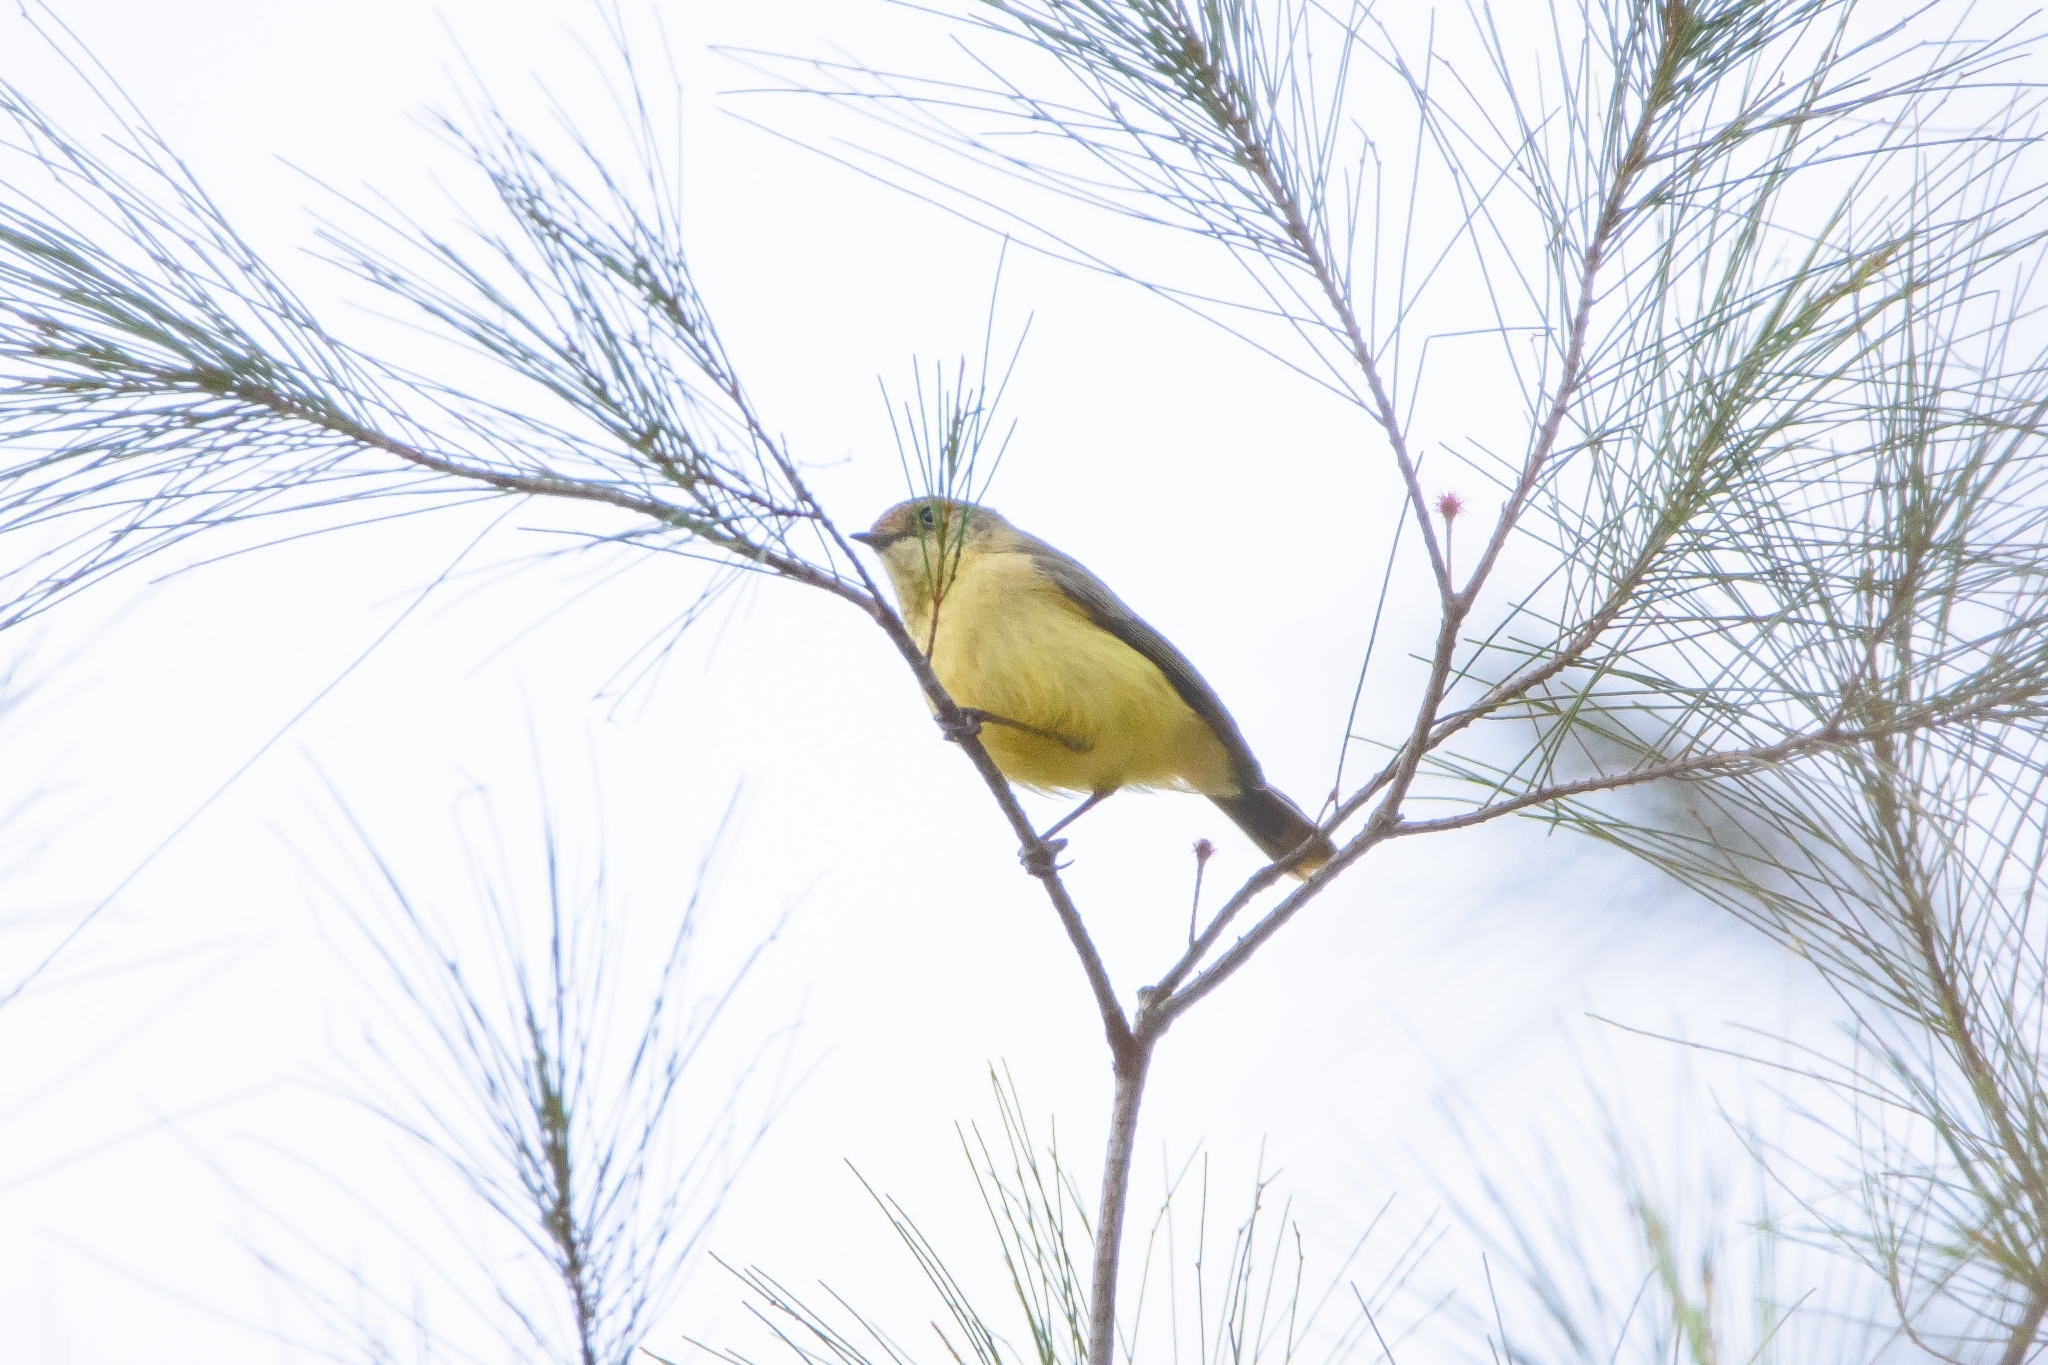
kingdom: Animalia
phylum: Chordata
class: Aves
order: Passeriformes
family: Acanthizidae
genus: Acanthiza
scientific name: Acanthiza reguloides
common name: Buff-rumped thornbill
